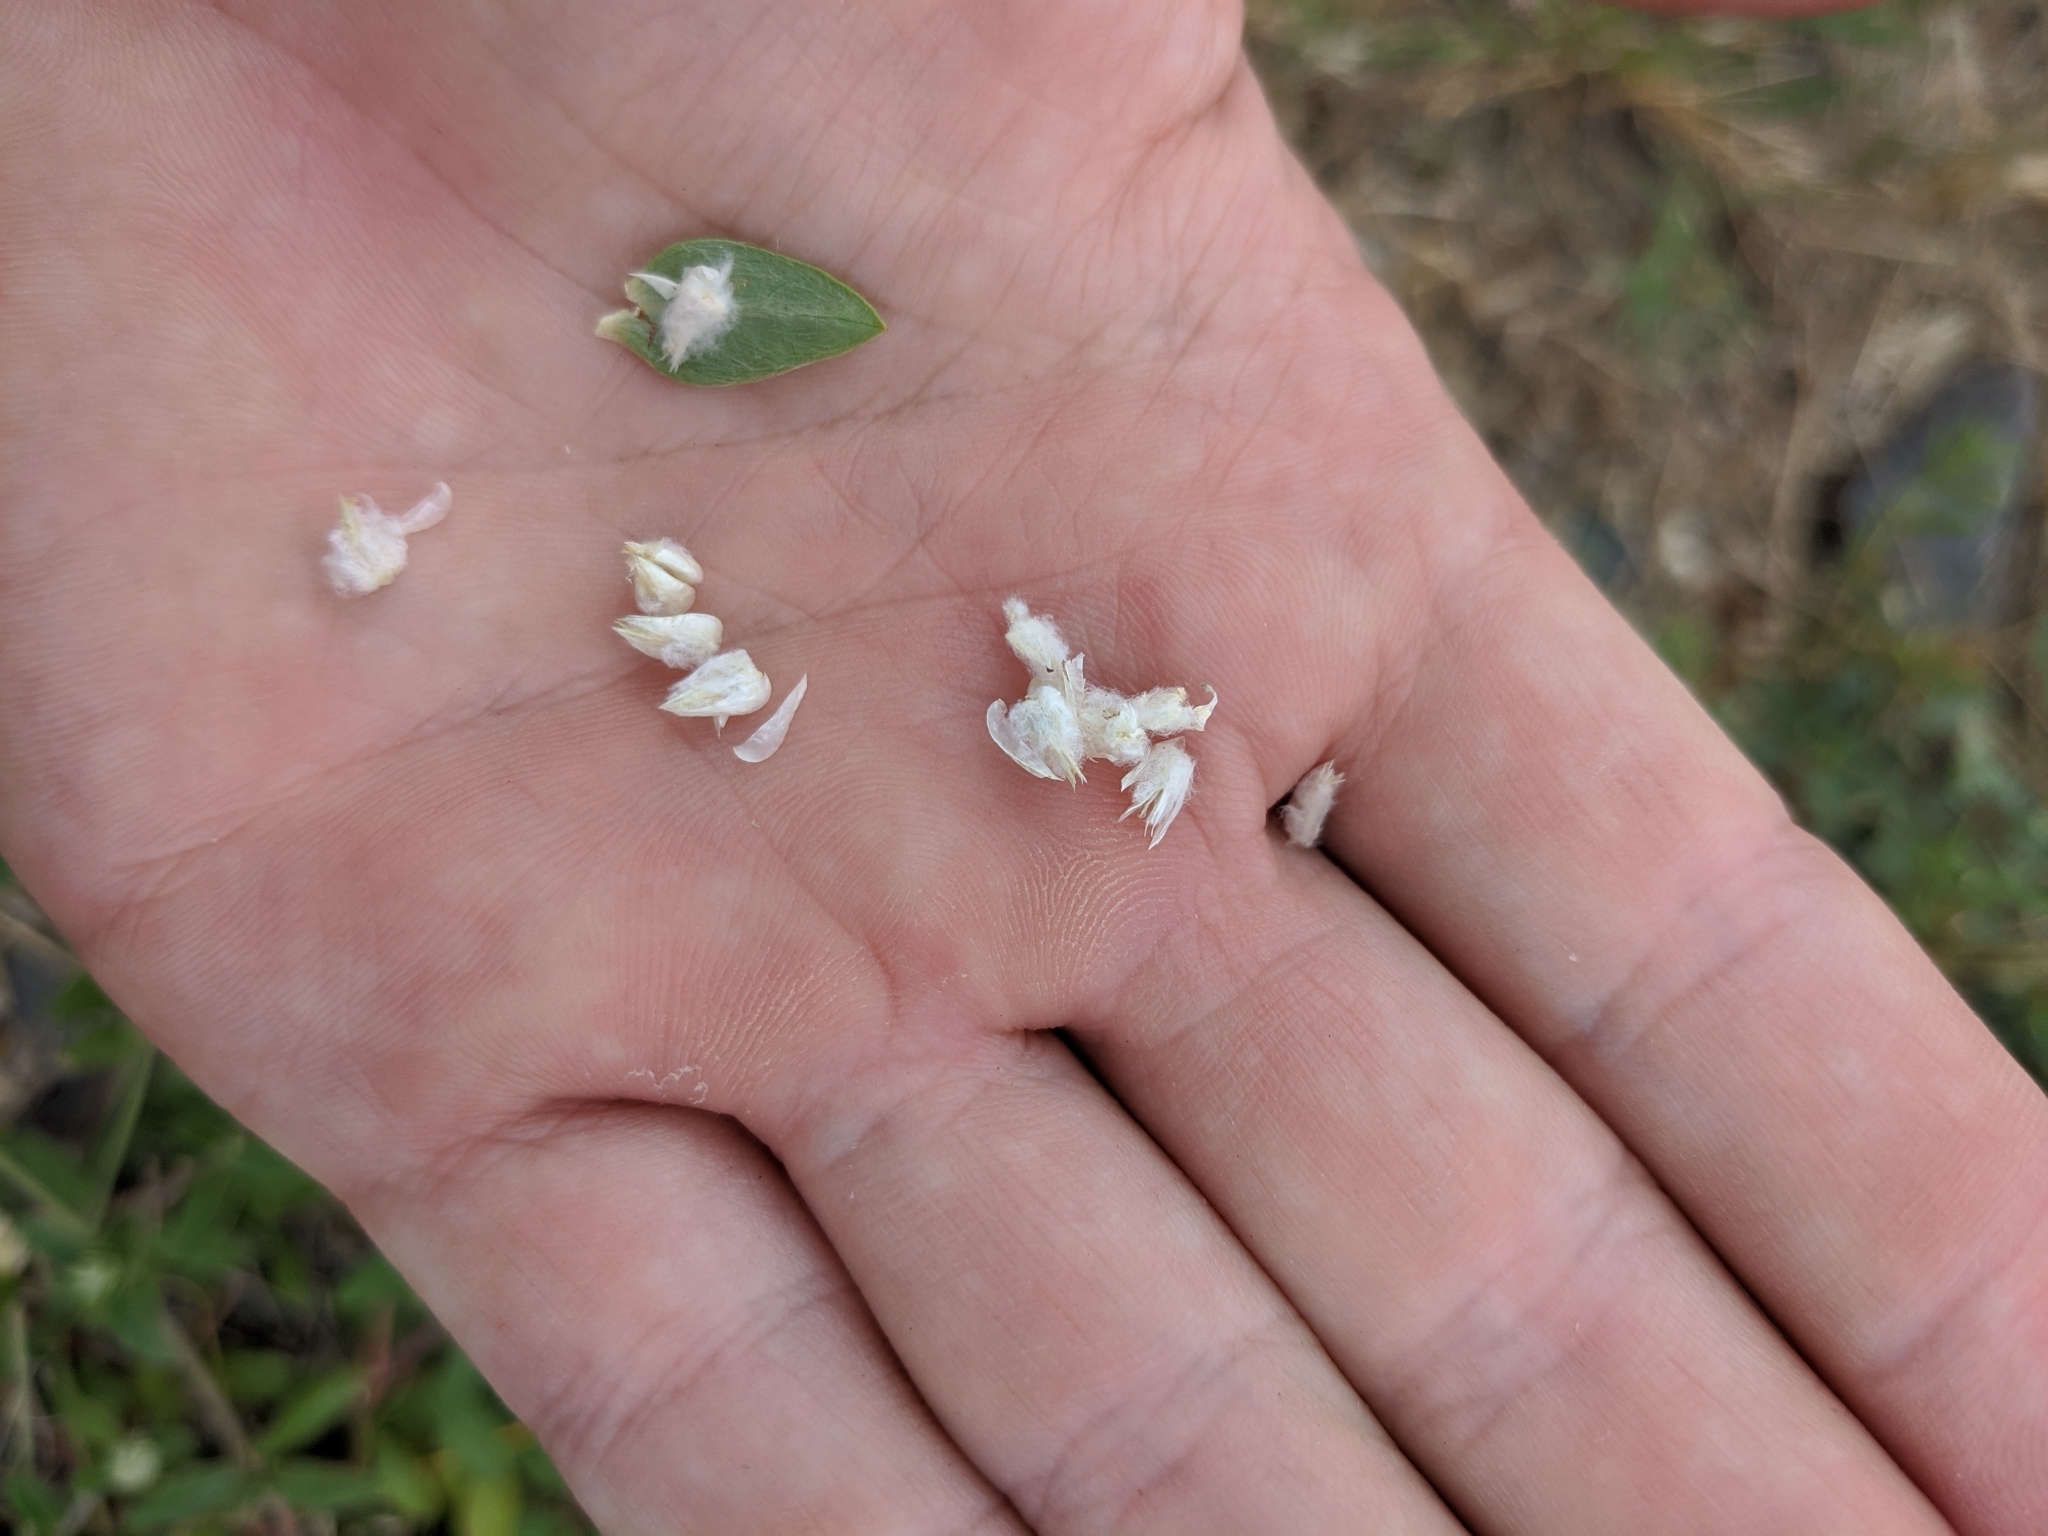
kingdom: Plantae
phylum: Tracheophyta
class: Magnoliopsida
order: Caryophyllales
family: Amaranthaceae
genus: Gomphrena
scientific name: Gomphrena serrata
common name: Arrasa con todo
